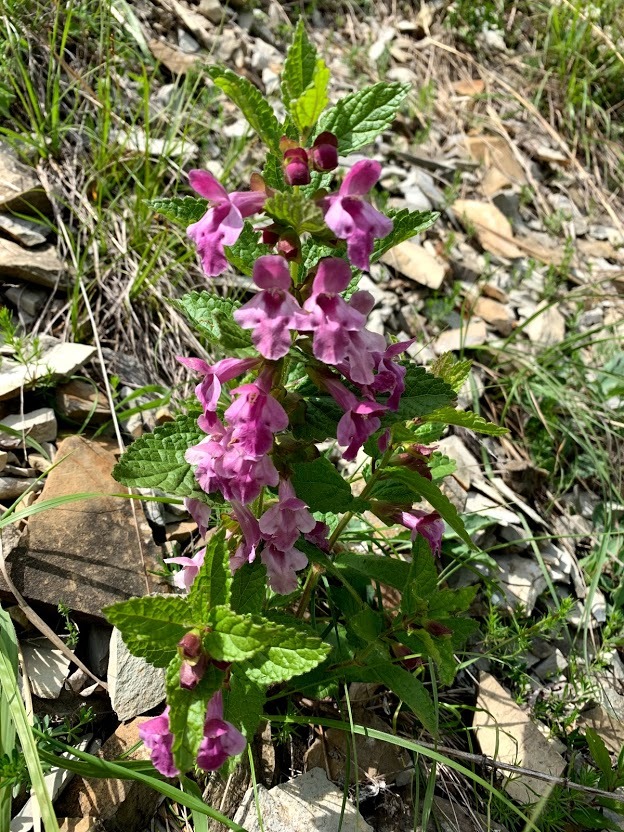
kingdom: Plantae
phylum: Tracheophyta
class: Magnoliopsida
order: Lamiales
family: Lamiaceae
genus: Melittis
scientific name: Melittis melissophyllum
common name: Bastard balm
